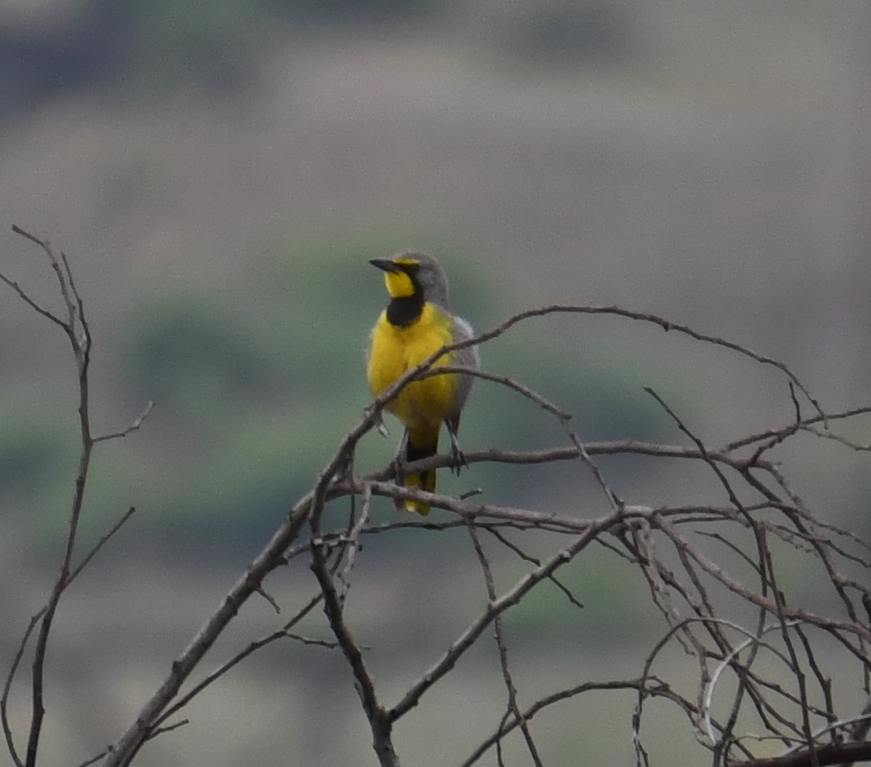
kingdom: Animalia
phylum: Chordata
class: Aves
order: Passeriformes
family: Malaconotidae
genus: Telophorus
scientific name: Telophorus zeylonus
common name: Bokmakierie
